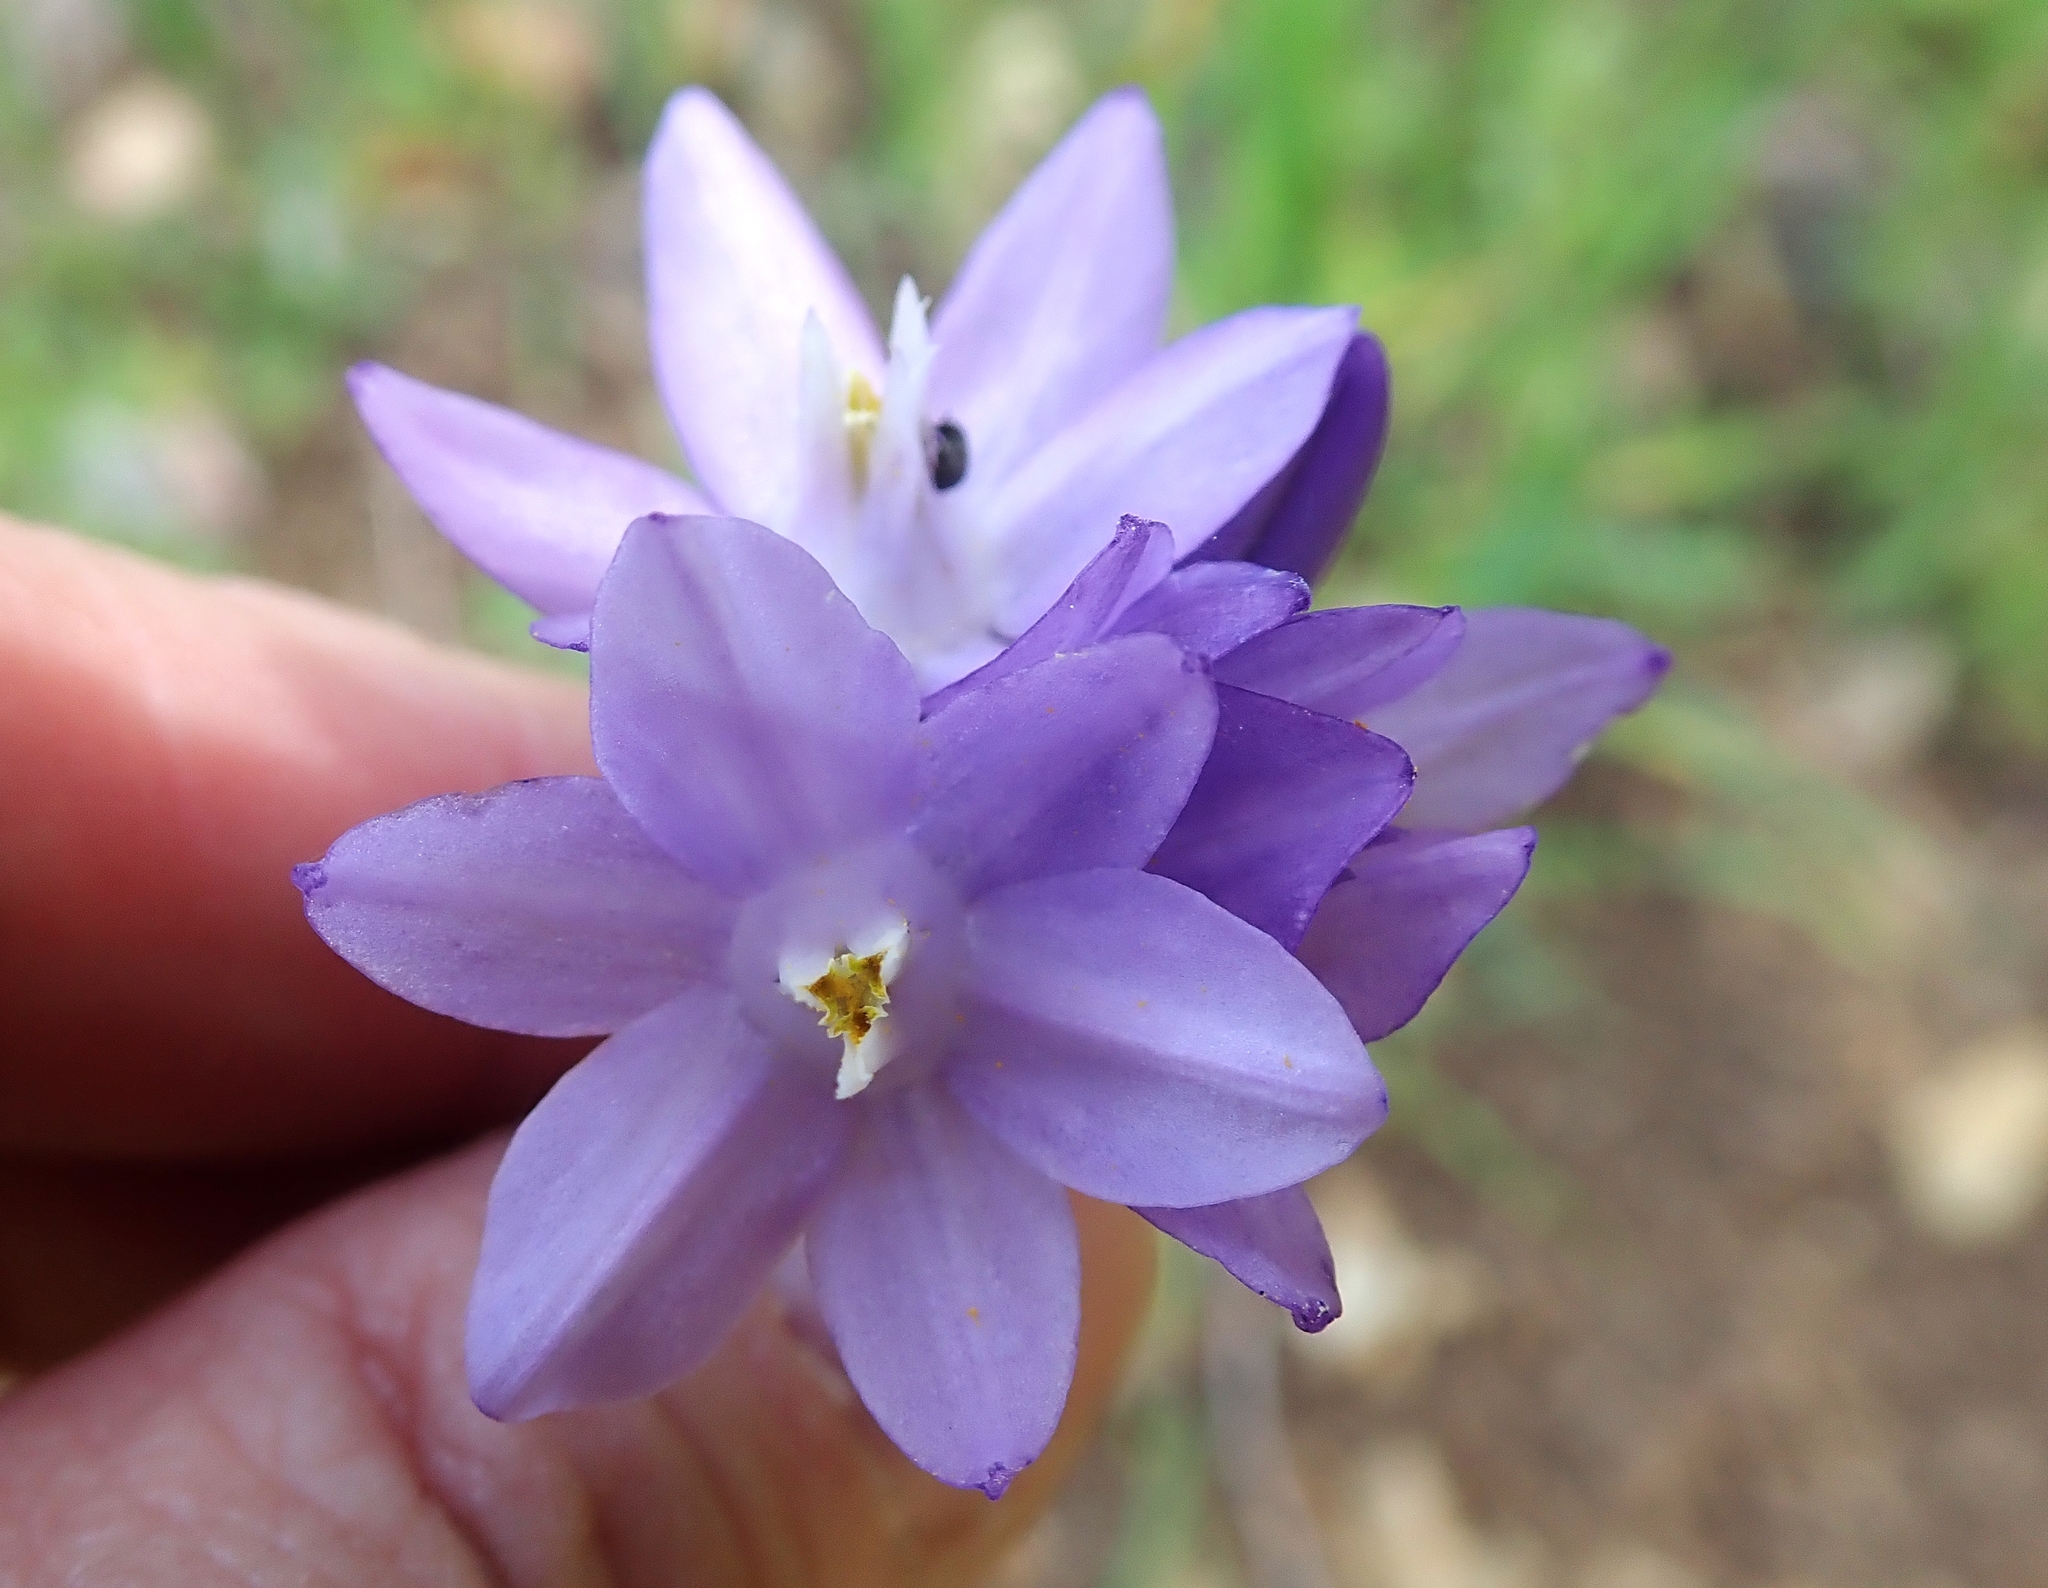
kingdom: Plantae
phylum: Tracheophyta
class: Liliopsida
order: Asparagales
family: Asparagaceae
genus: Dipterostemon
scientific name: Dipterostemon capitatus
